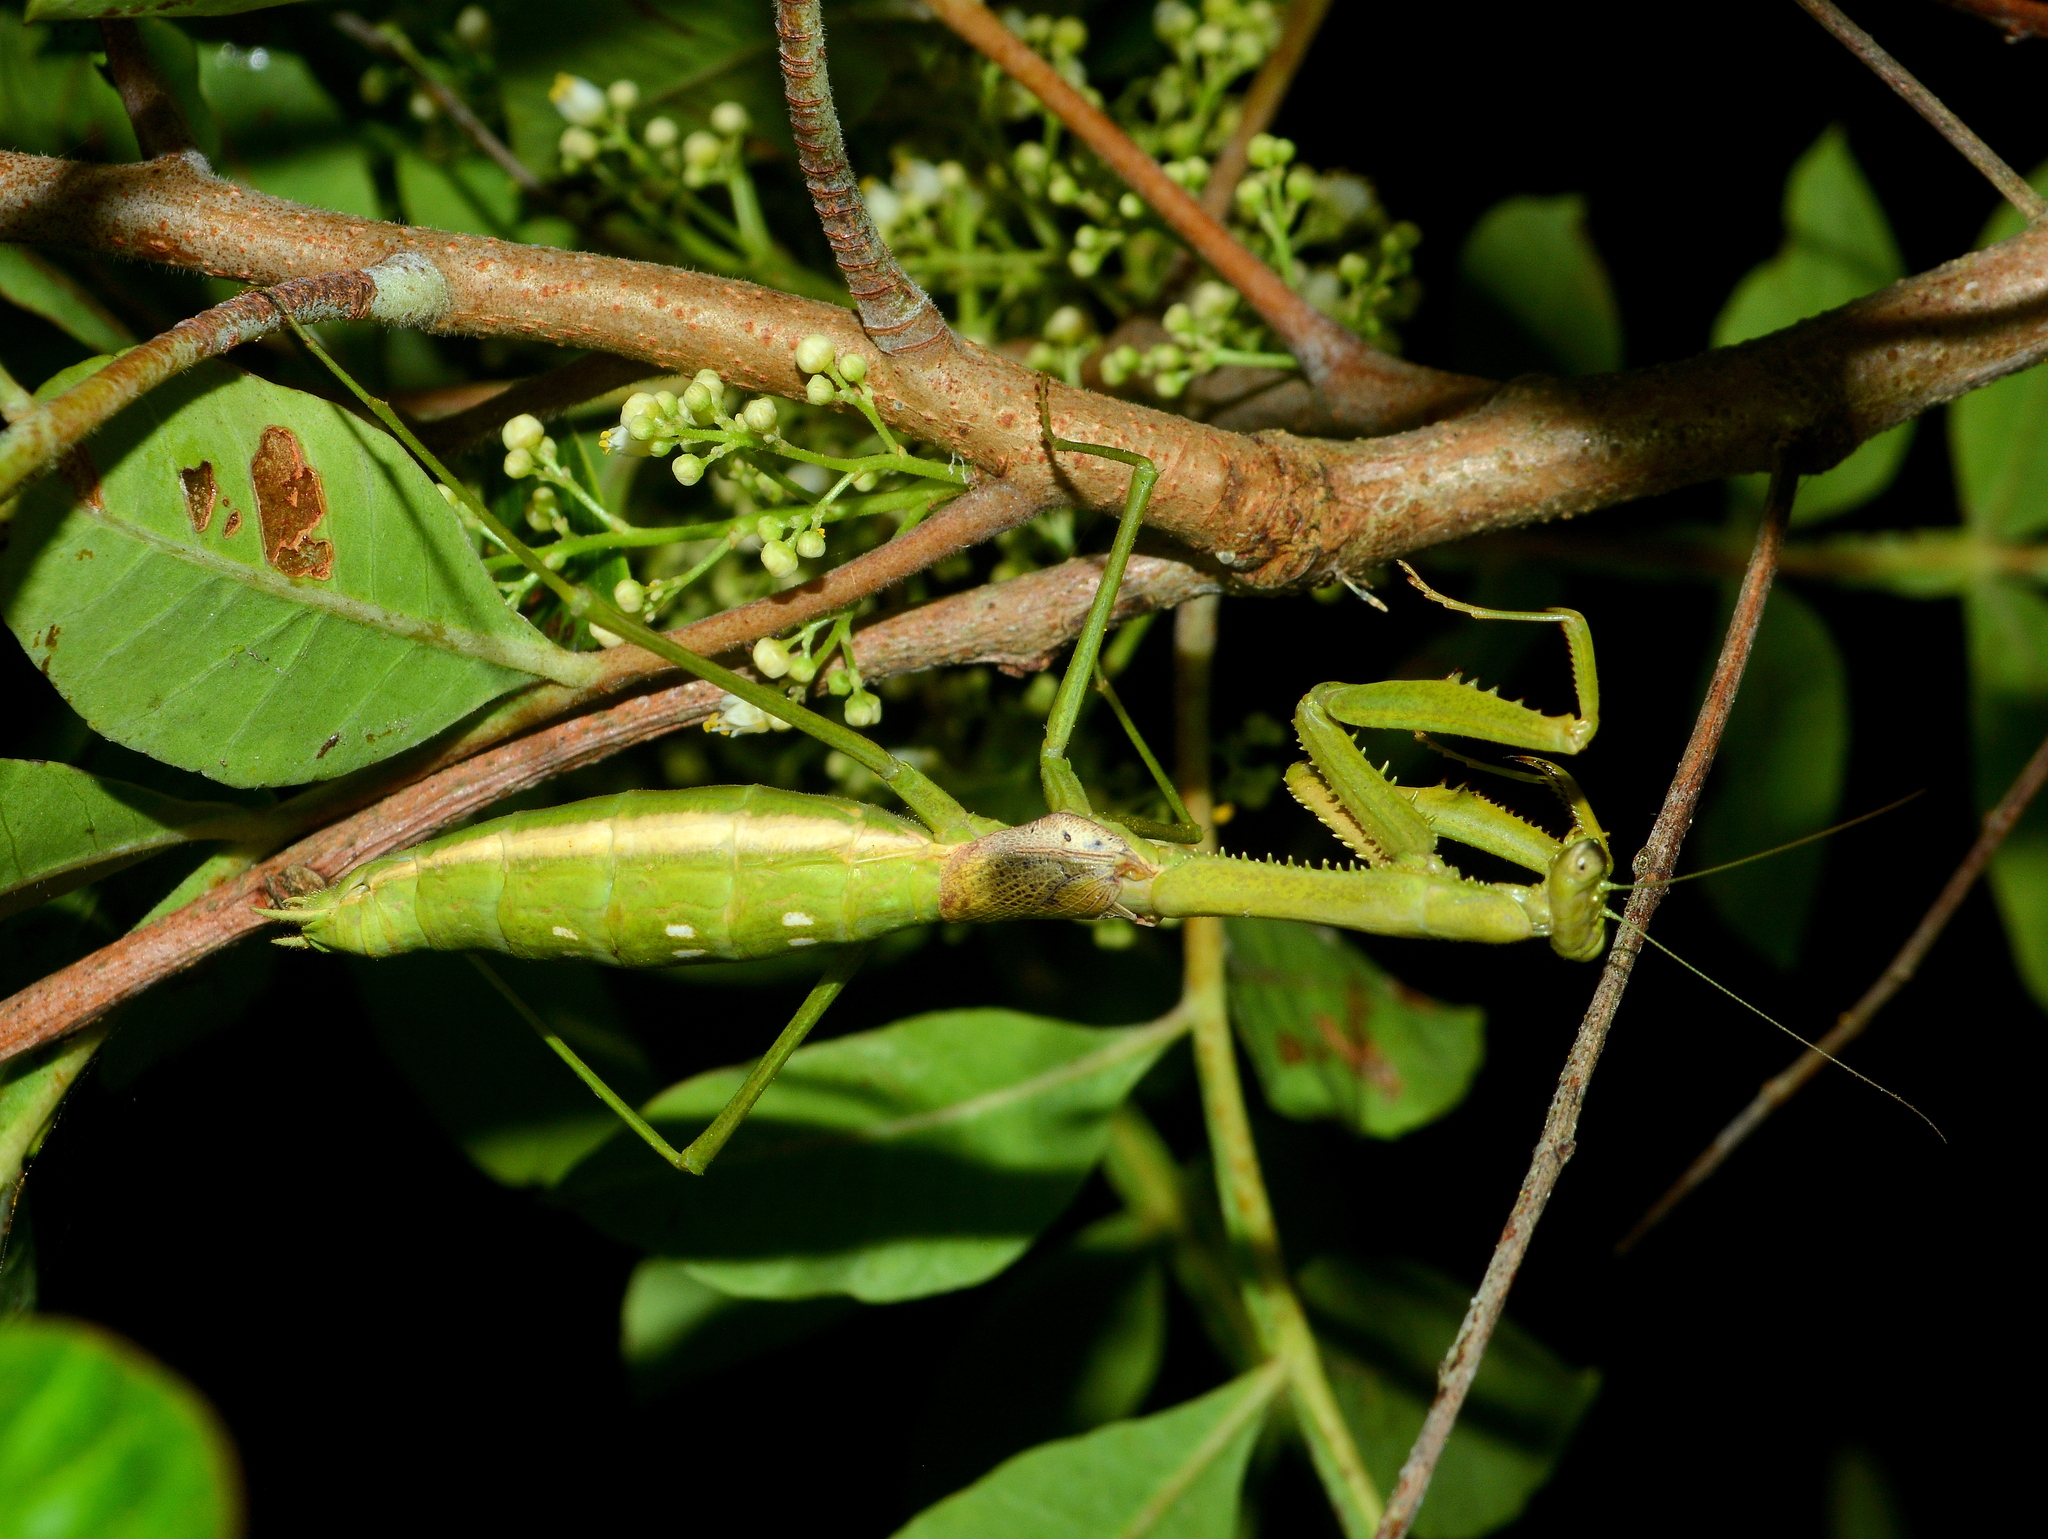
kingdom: Animalia
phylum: Arthropoda
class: Insecta
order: Mantodea
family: Coptopterygidae
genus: Coptopteryx
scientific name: Coptopteryx gayi
